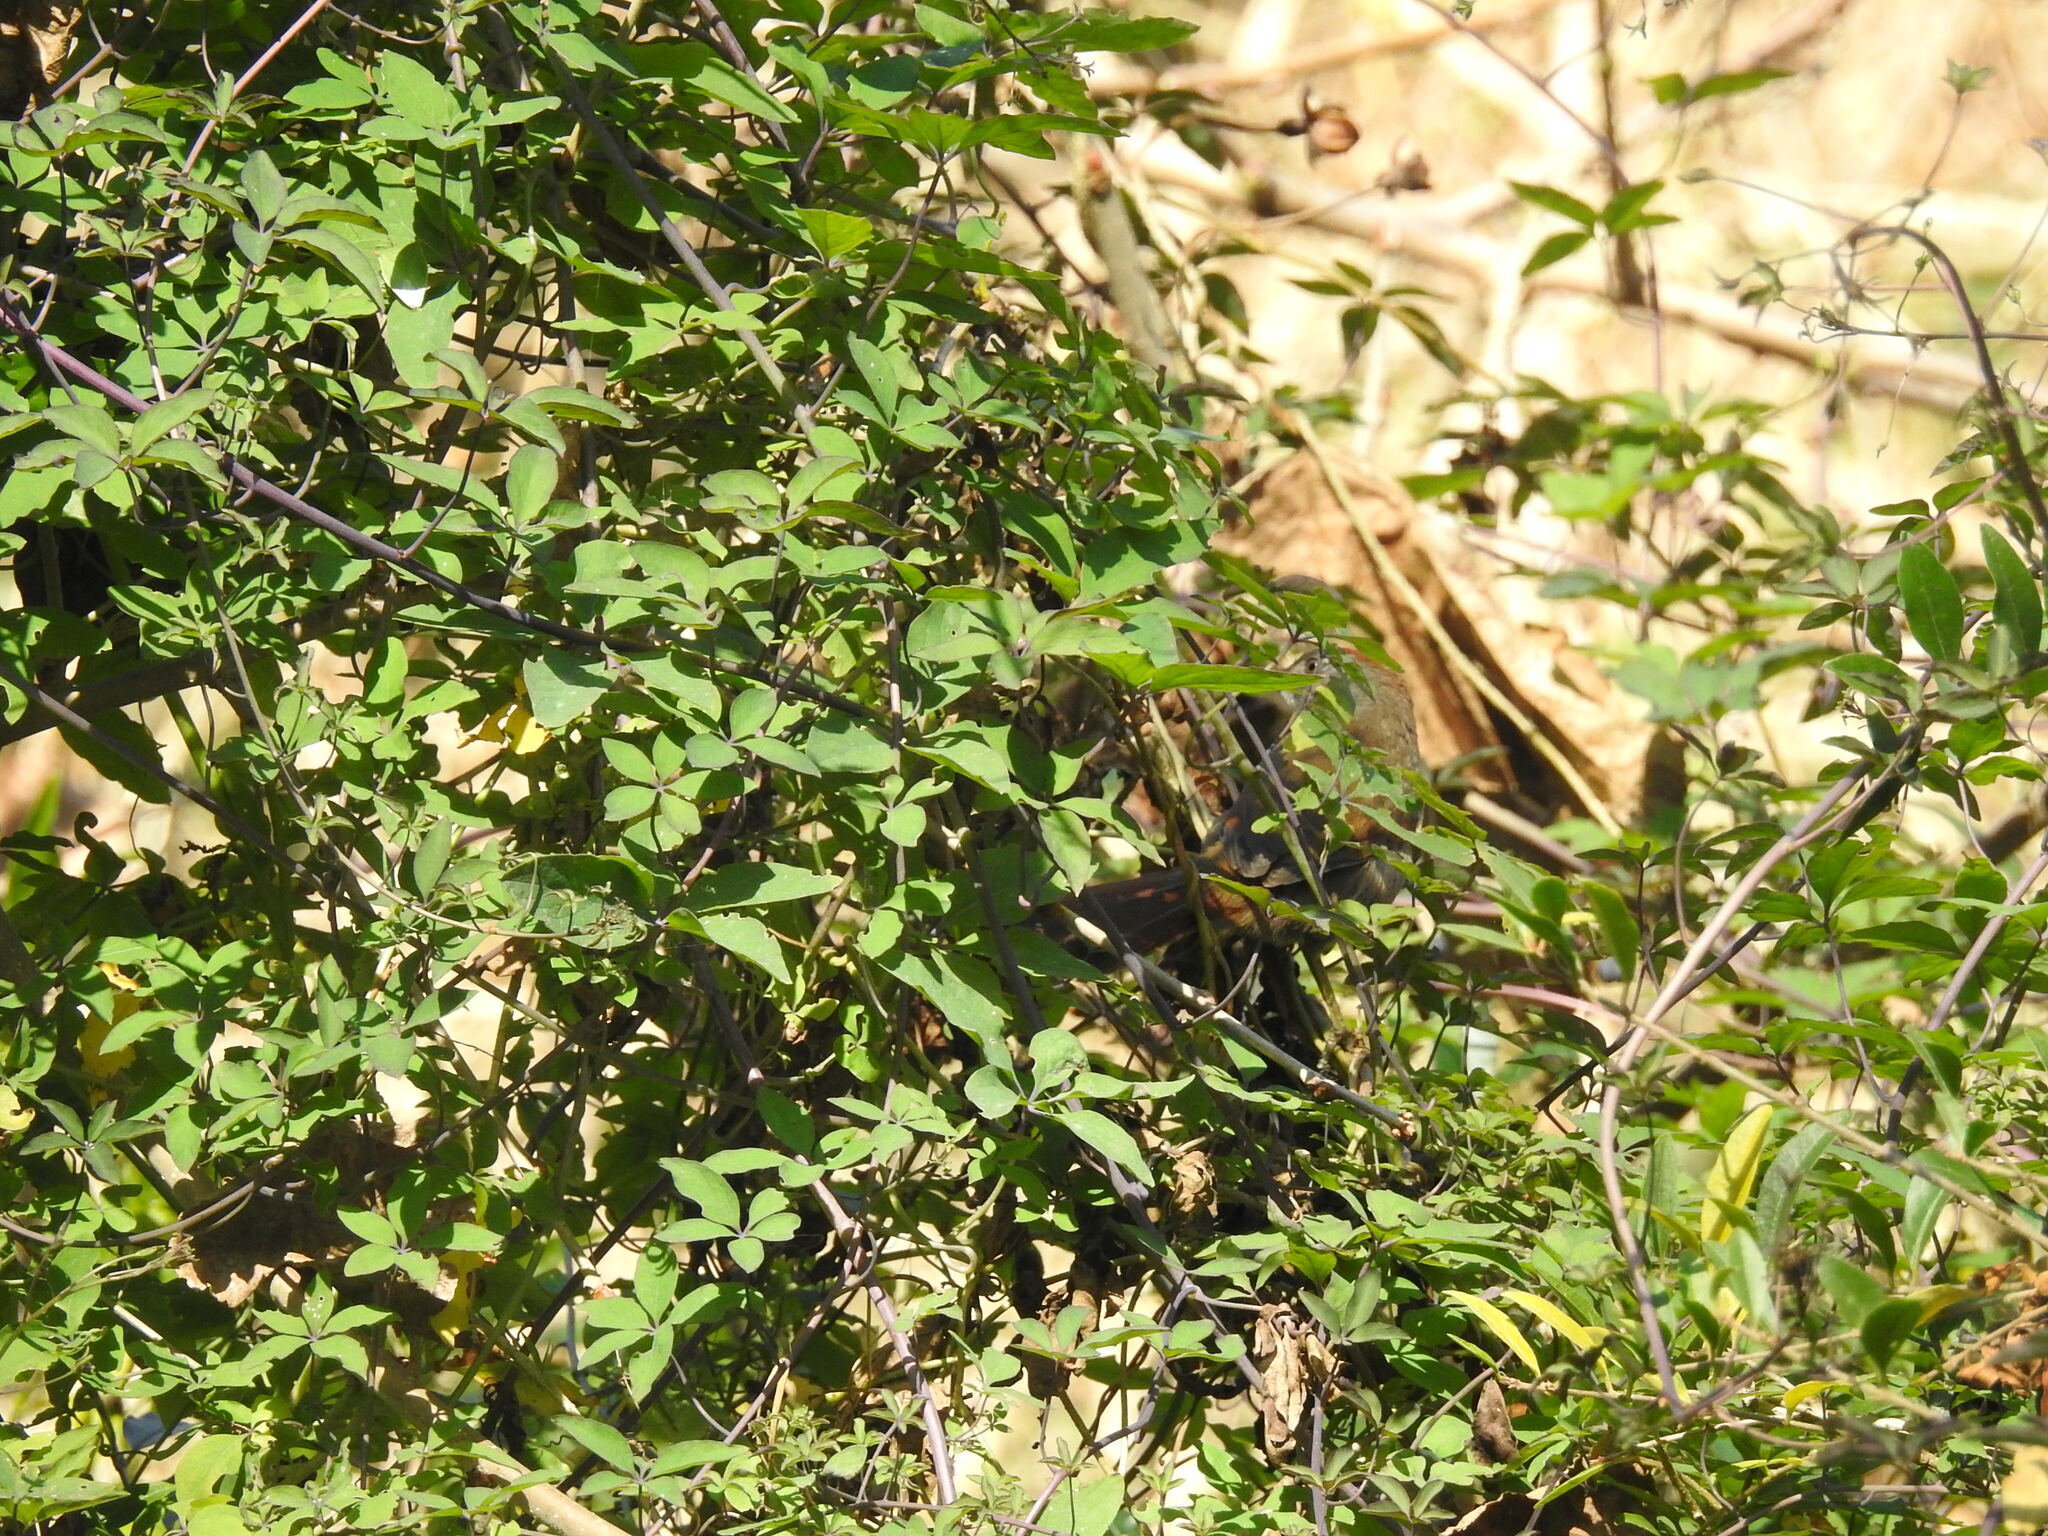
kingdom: Animalia
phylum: Chordata
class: Aves
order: Passeriformes
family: Furnariidae
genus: Synallaxis
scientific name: Synallaxis frontalis
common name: Sooty-fronted spinetail
